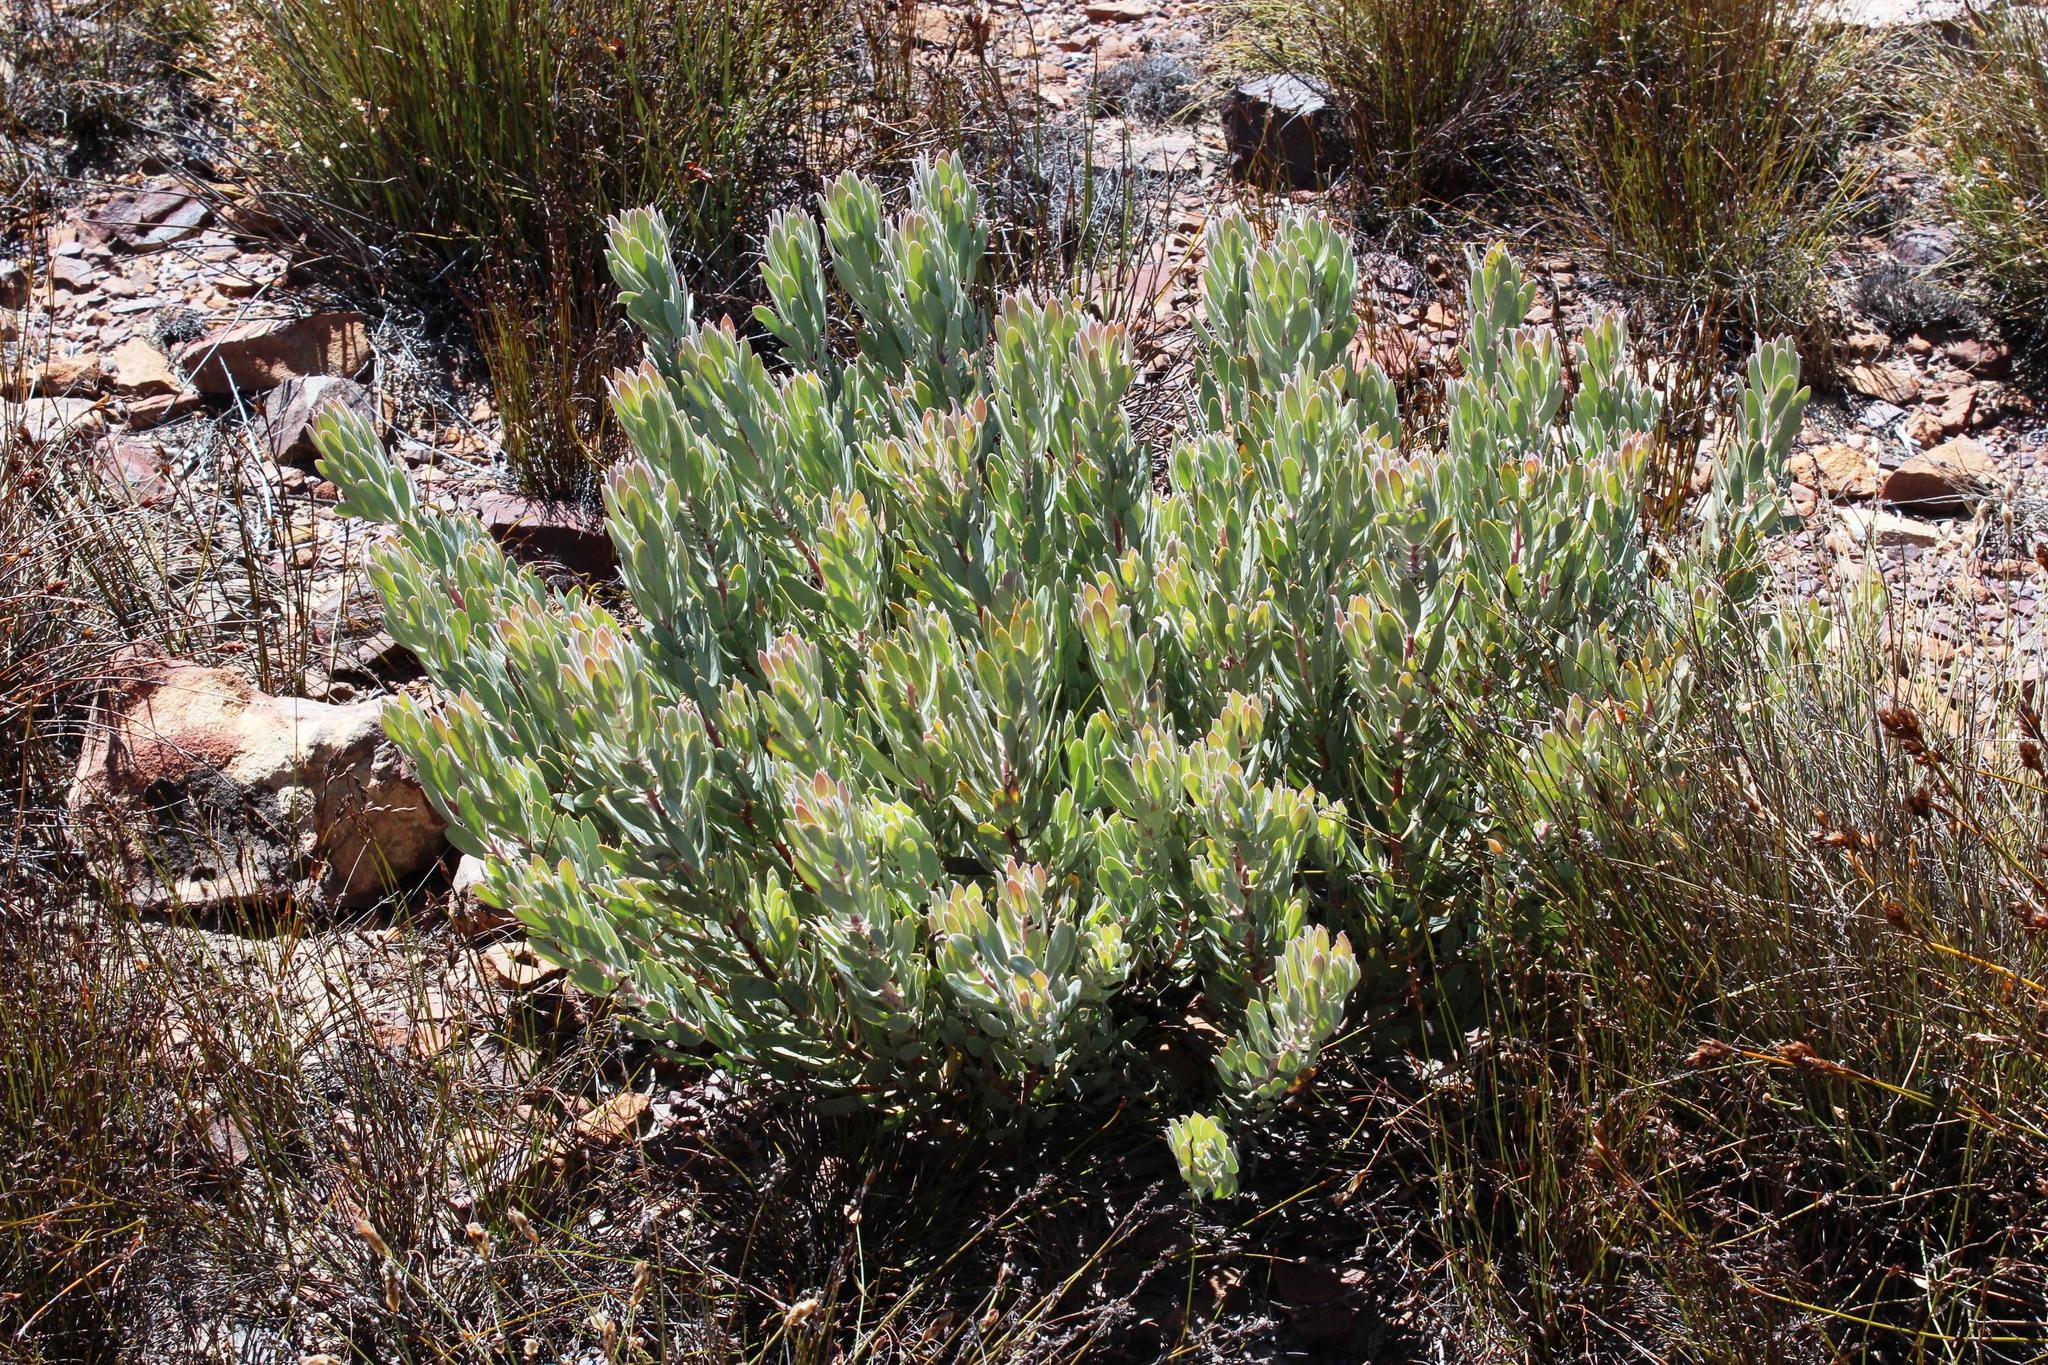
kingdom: Plantae
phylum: Tracheophyta
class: Magnoliopsida
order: Proteales
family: Proteaceae
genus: Protea
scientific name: Protea pendula
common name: Nodding sugarbush
